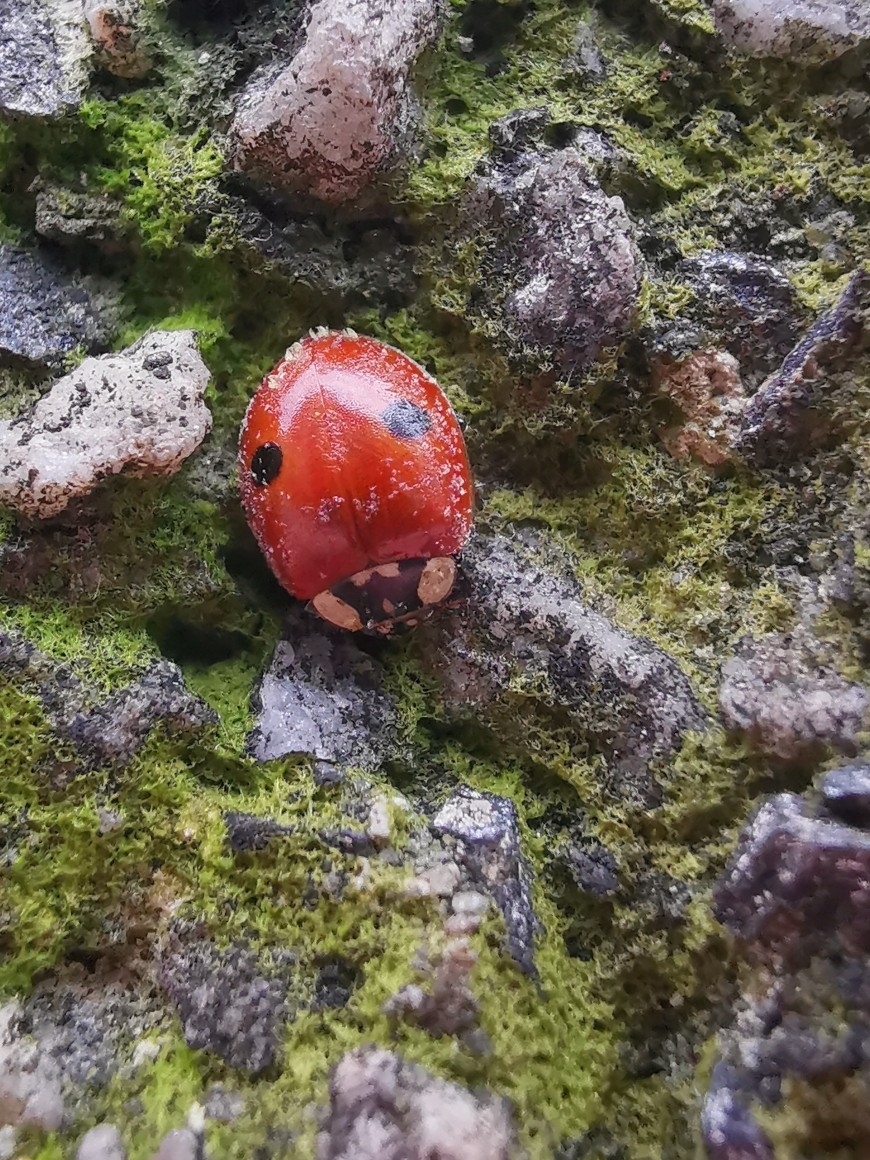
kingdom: Animalia
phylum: Arthropoda
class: Insecta
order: Coleoptera
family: Coccinellidae
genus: Adalia
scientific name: Adalia bipunctata
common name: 2-spot ladybird
